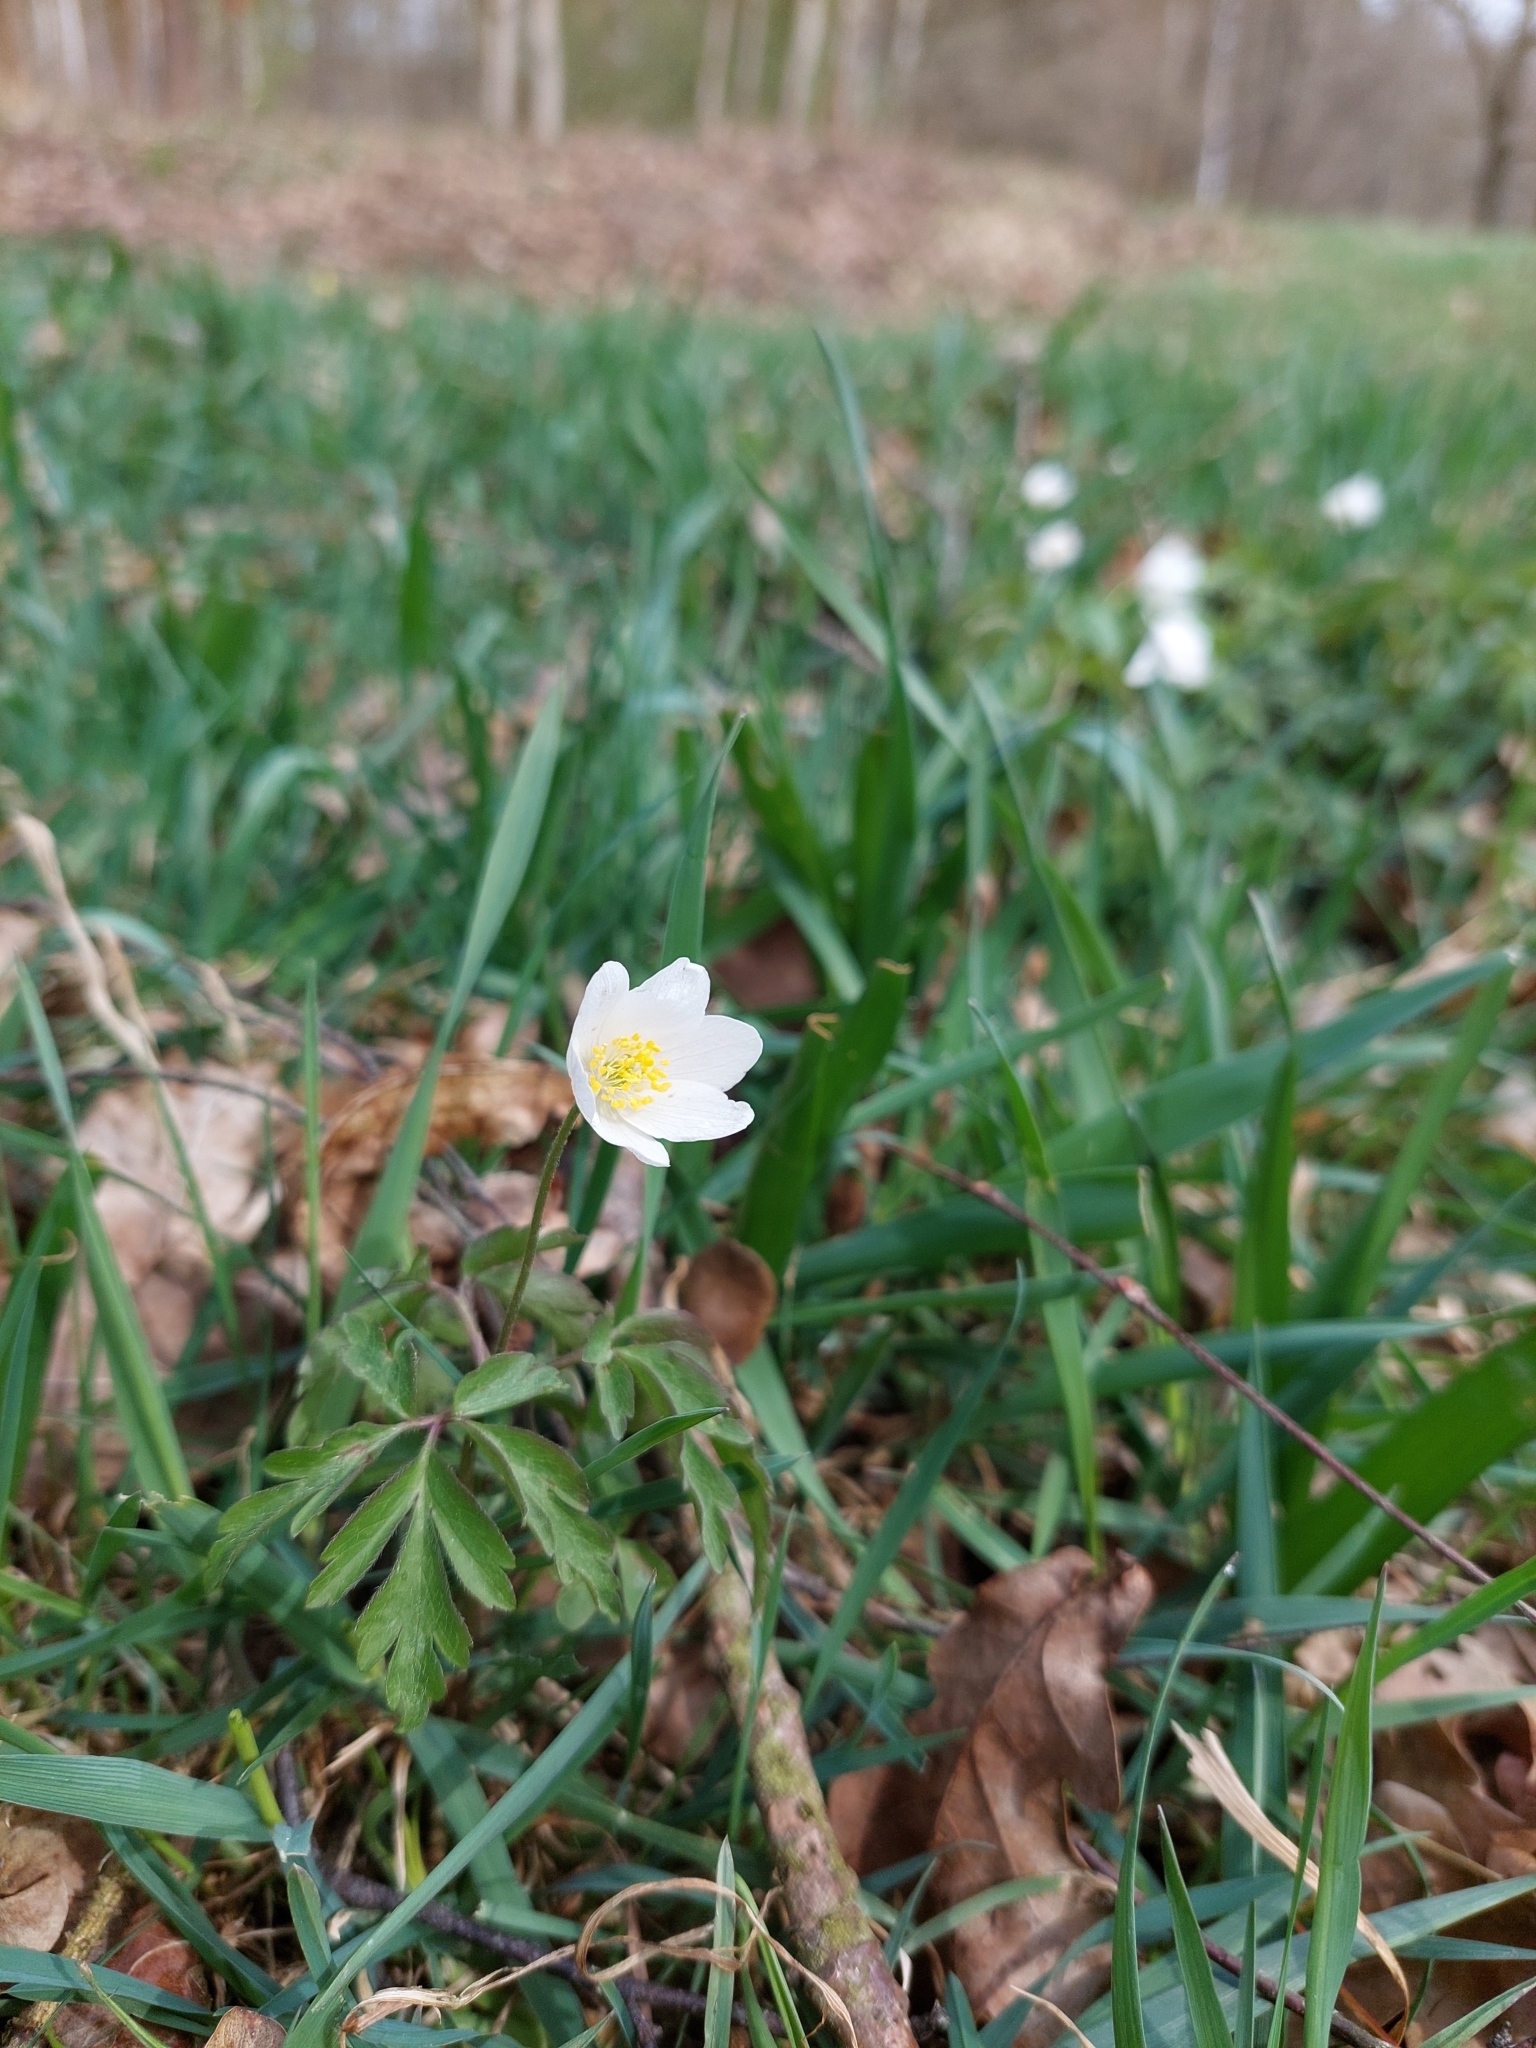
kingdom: Plantae
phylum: Tracheophyta
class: Magnoliopsida
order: Ranunculales
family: Ranunculaceae
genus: Anemone
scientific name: Anemone nemorosa
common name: Wood anemone
